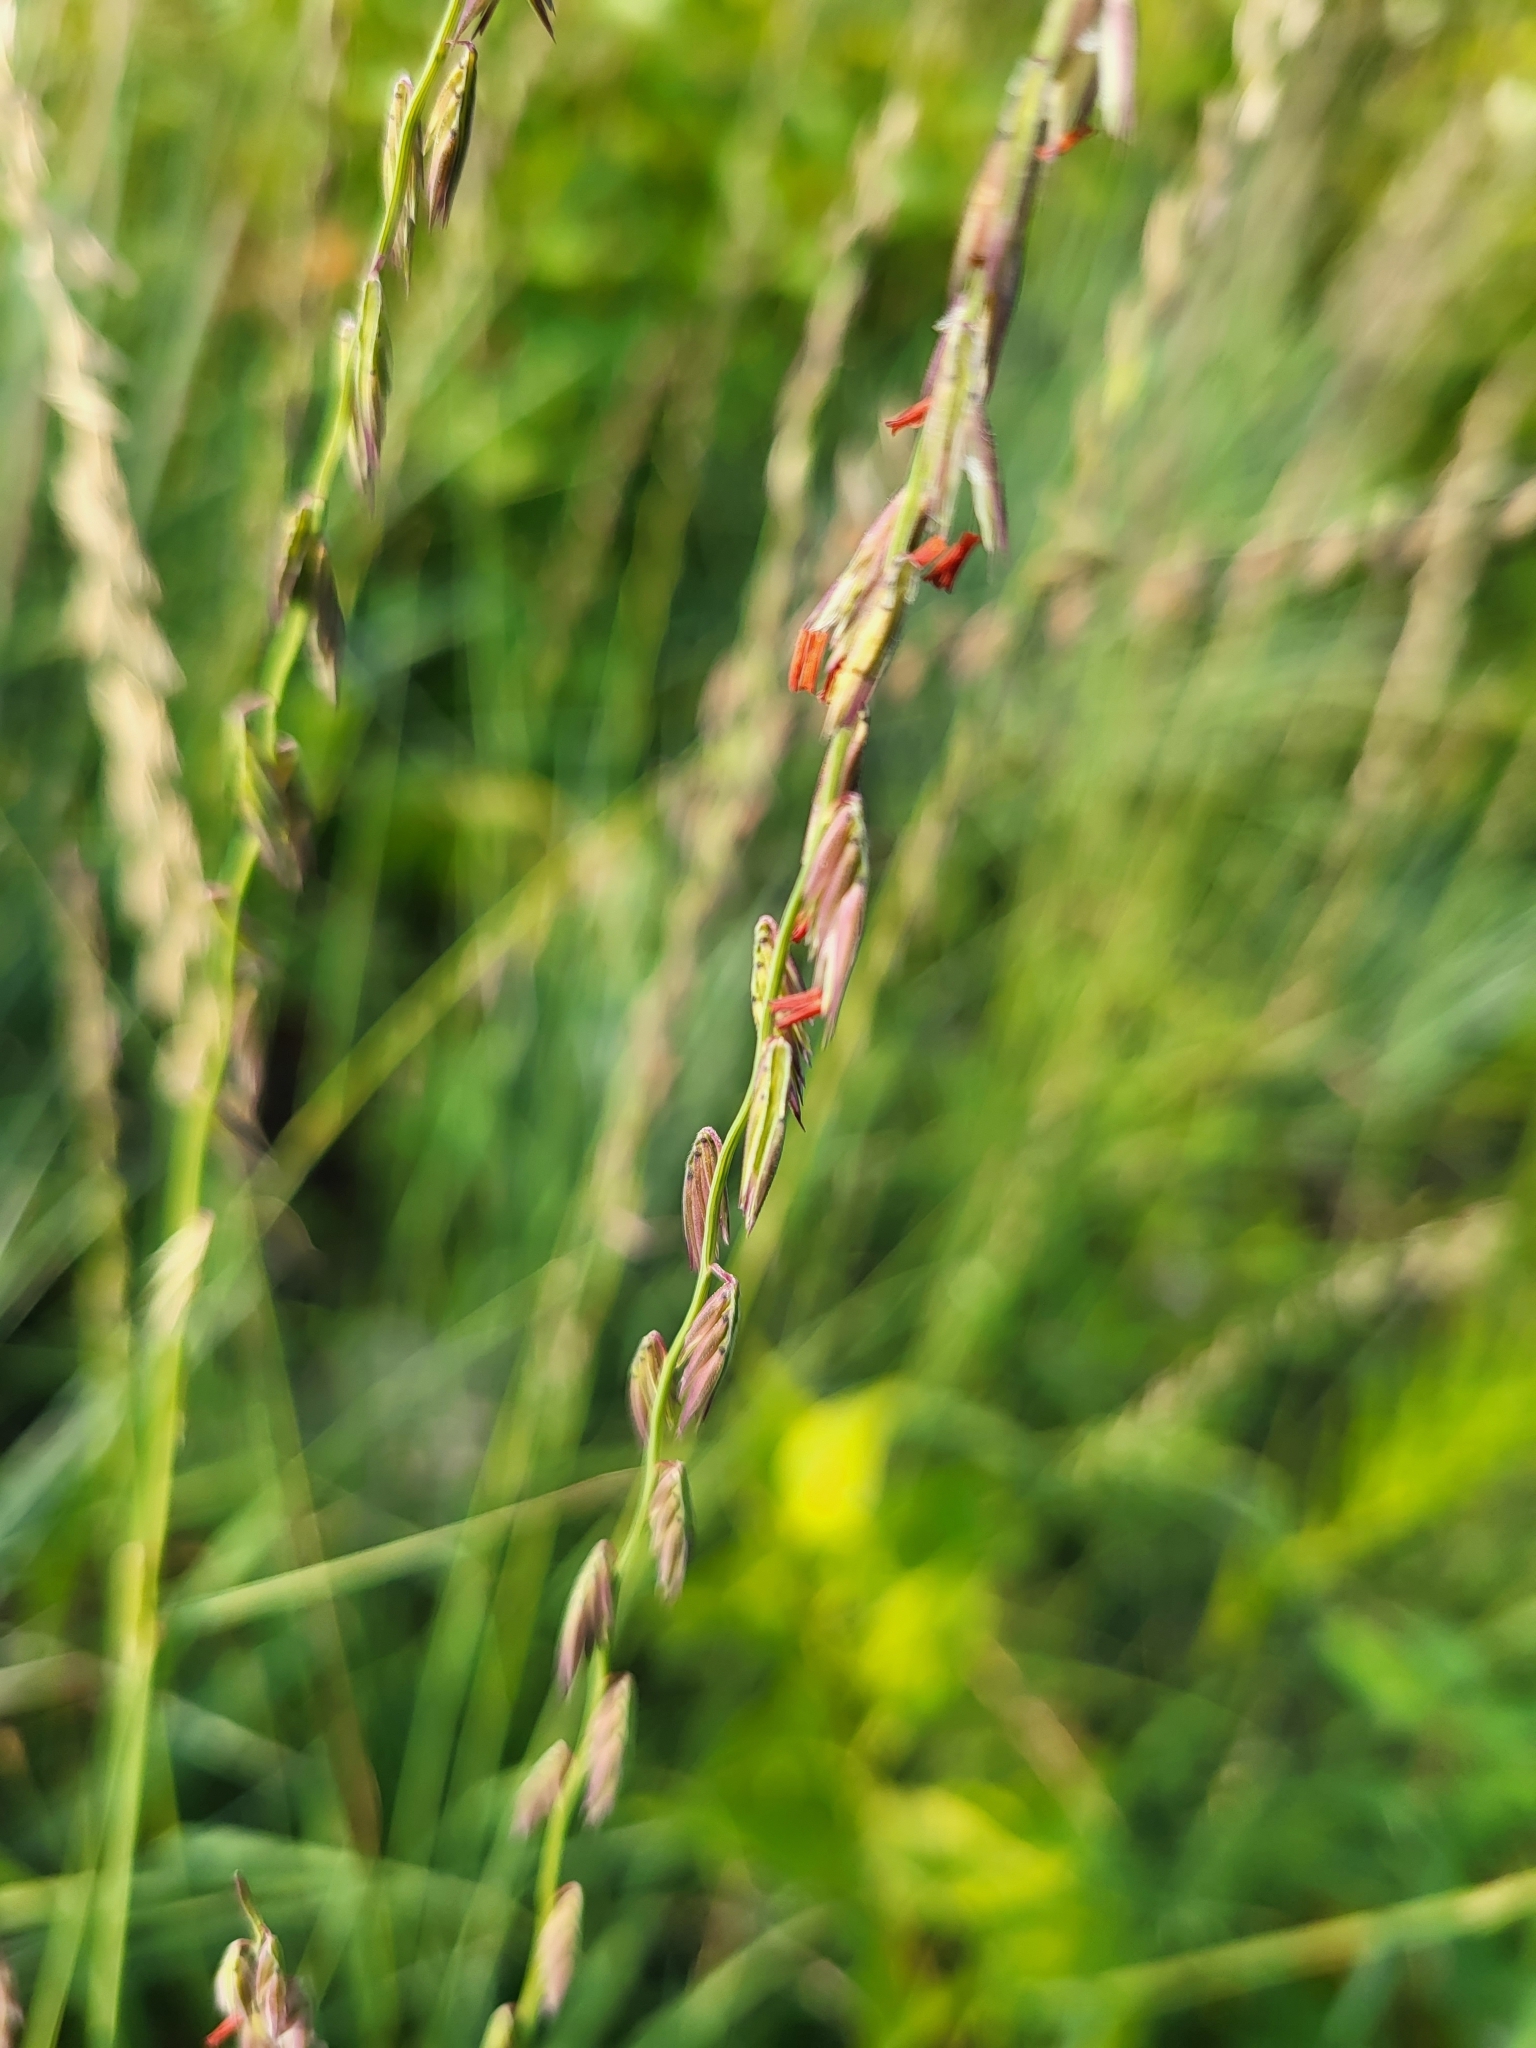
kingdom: Plantae
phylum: Tracheophyta
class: Liliopsida
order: Poales
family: Poaceae
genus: Bouteloua
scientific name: Bouteloua curtipendula
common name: Side-oats grama
